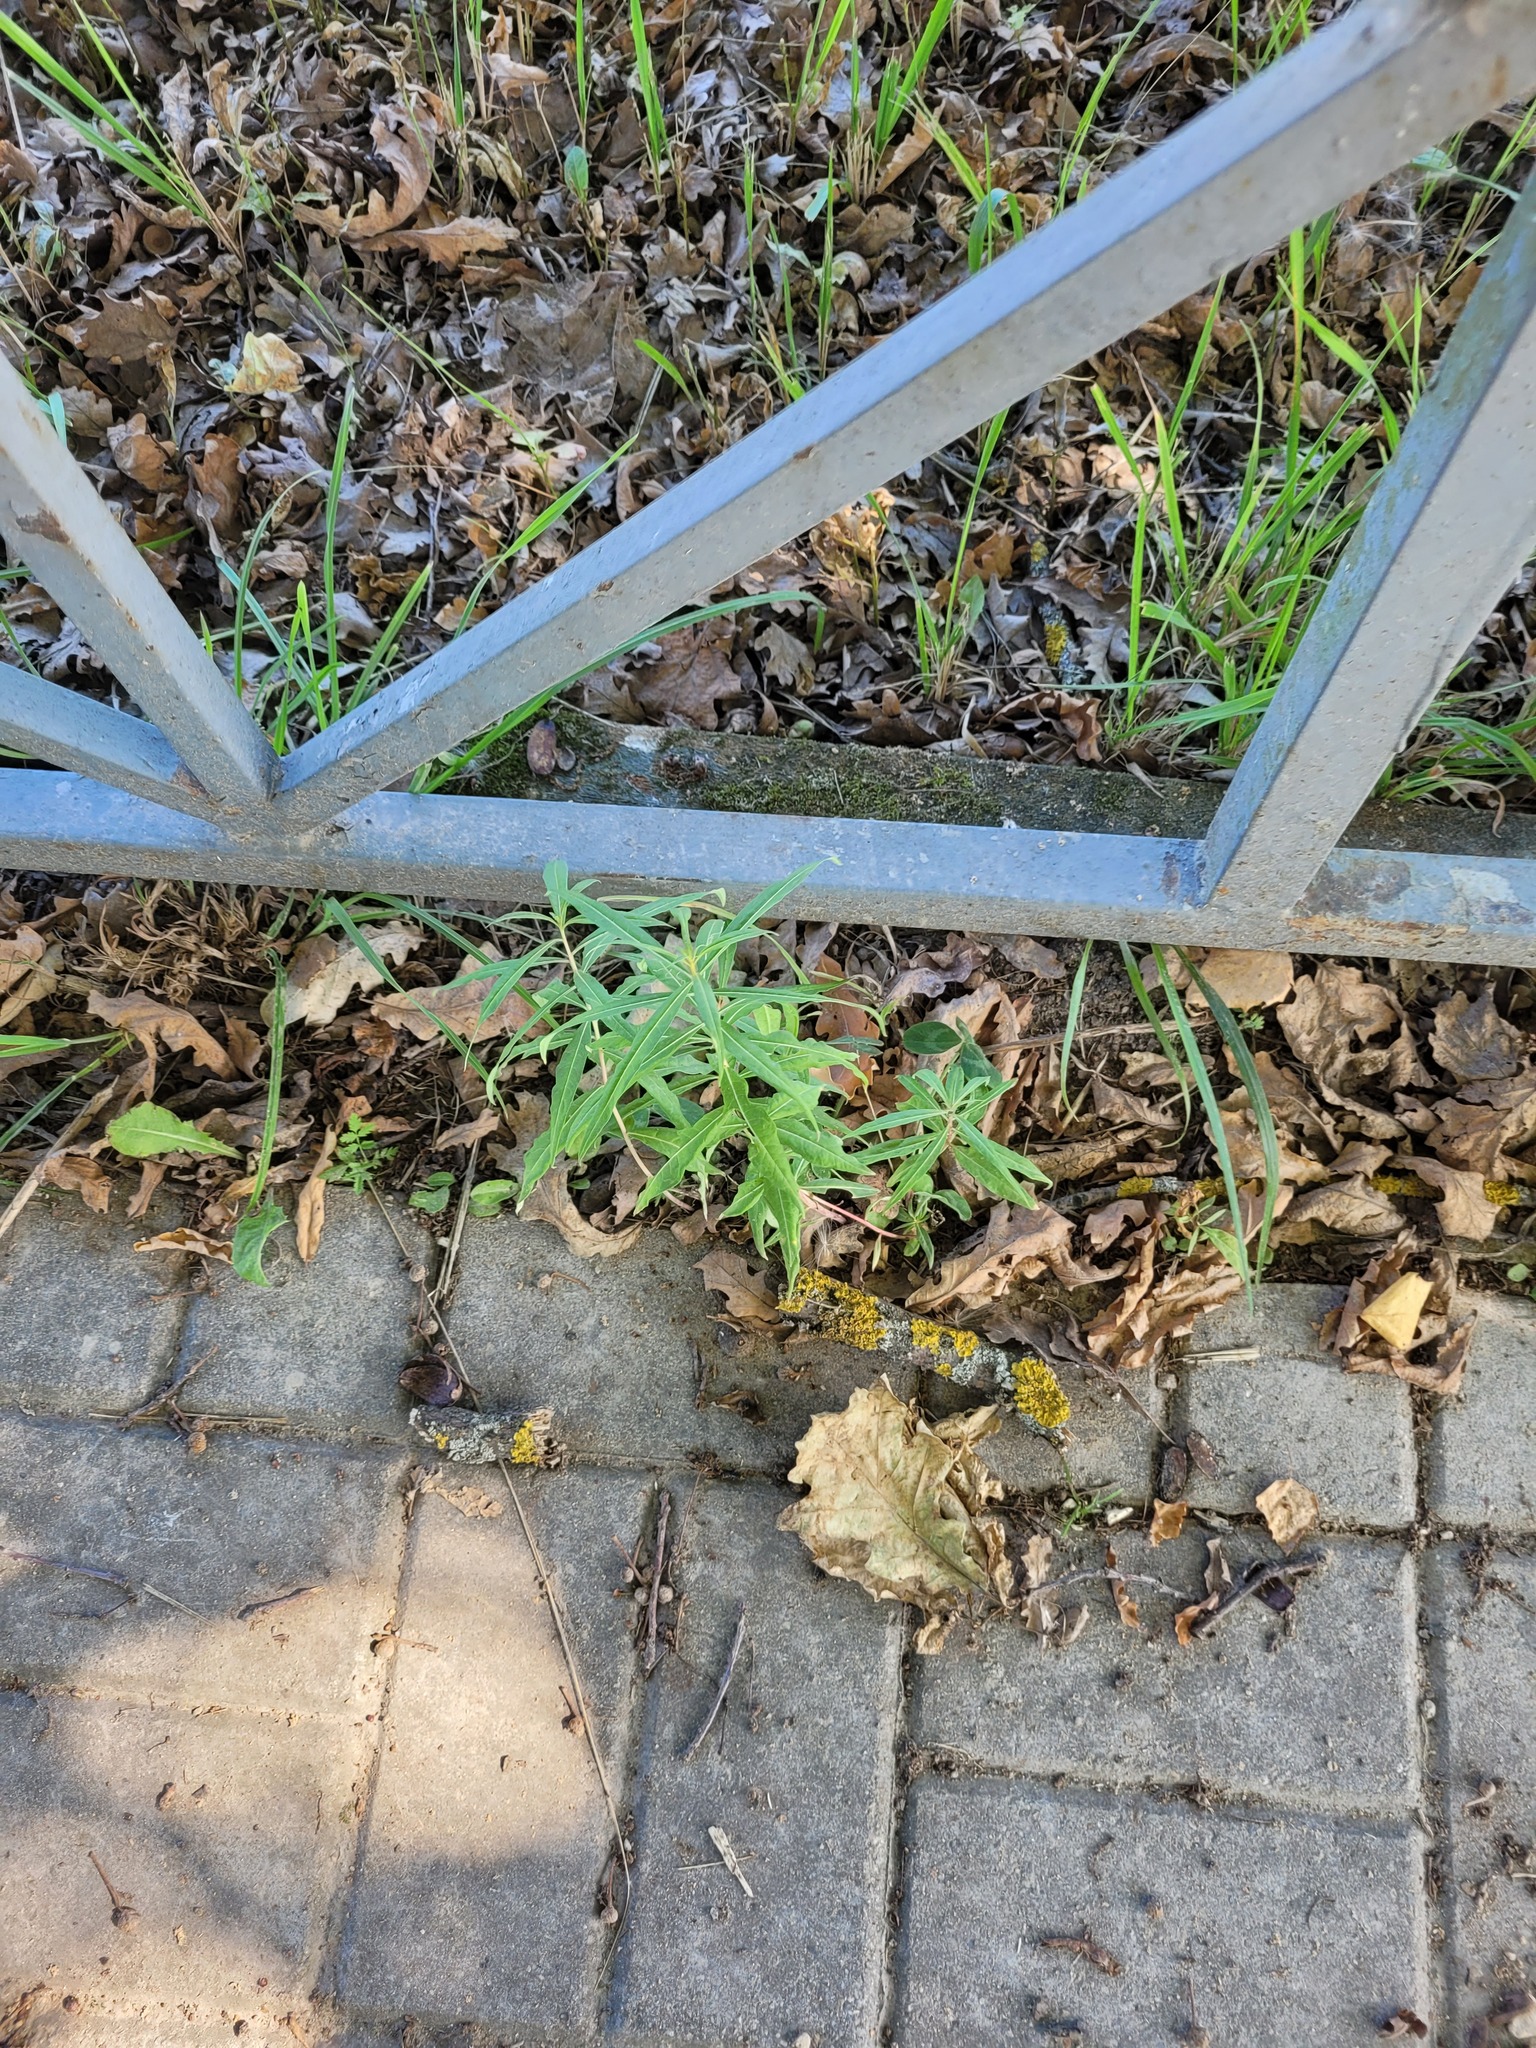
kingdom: Plantae
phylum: Tracheophyta
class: Magnoliopsida
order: Myrtales
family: Onagraceae
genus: Chamaenerion
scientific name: Chamaenerion angustifolium
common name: Fireweed
